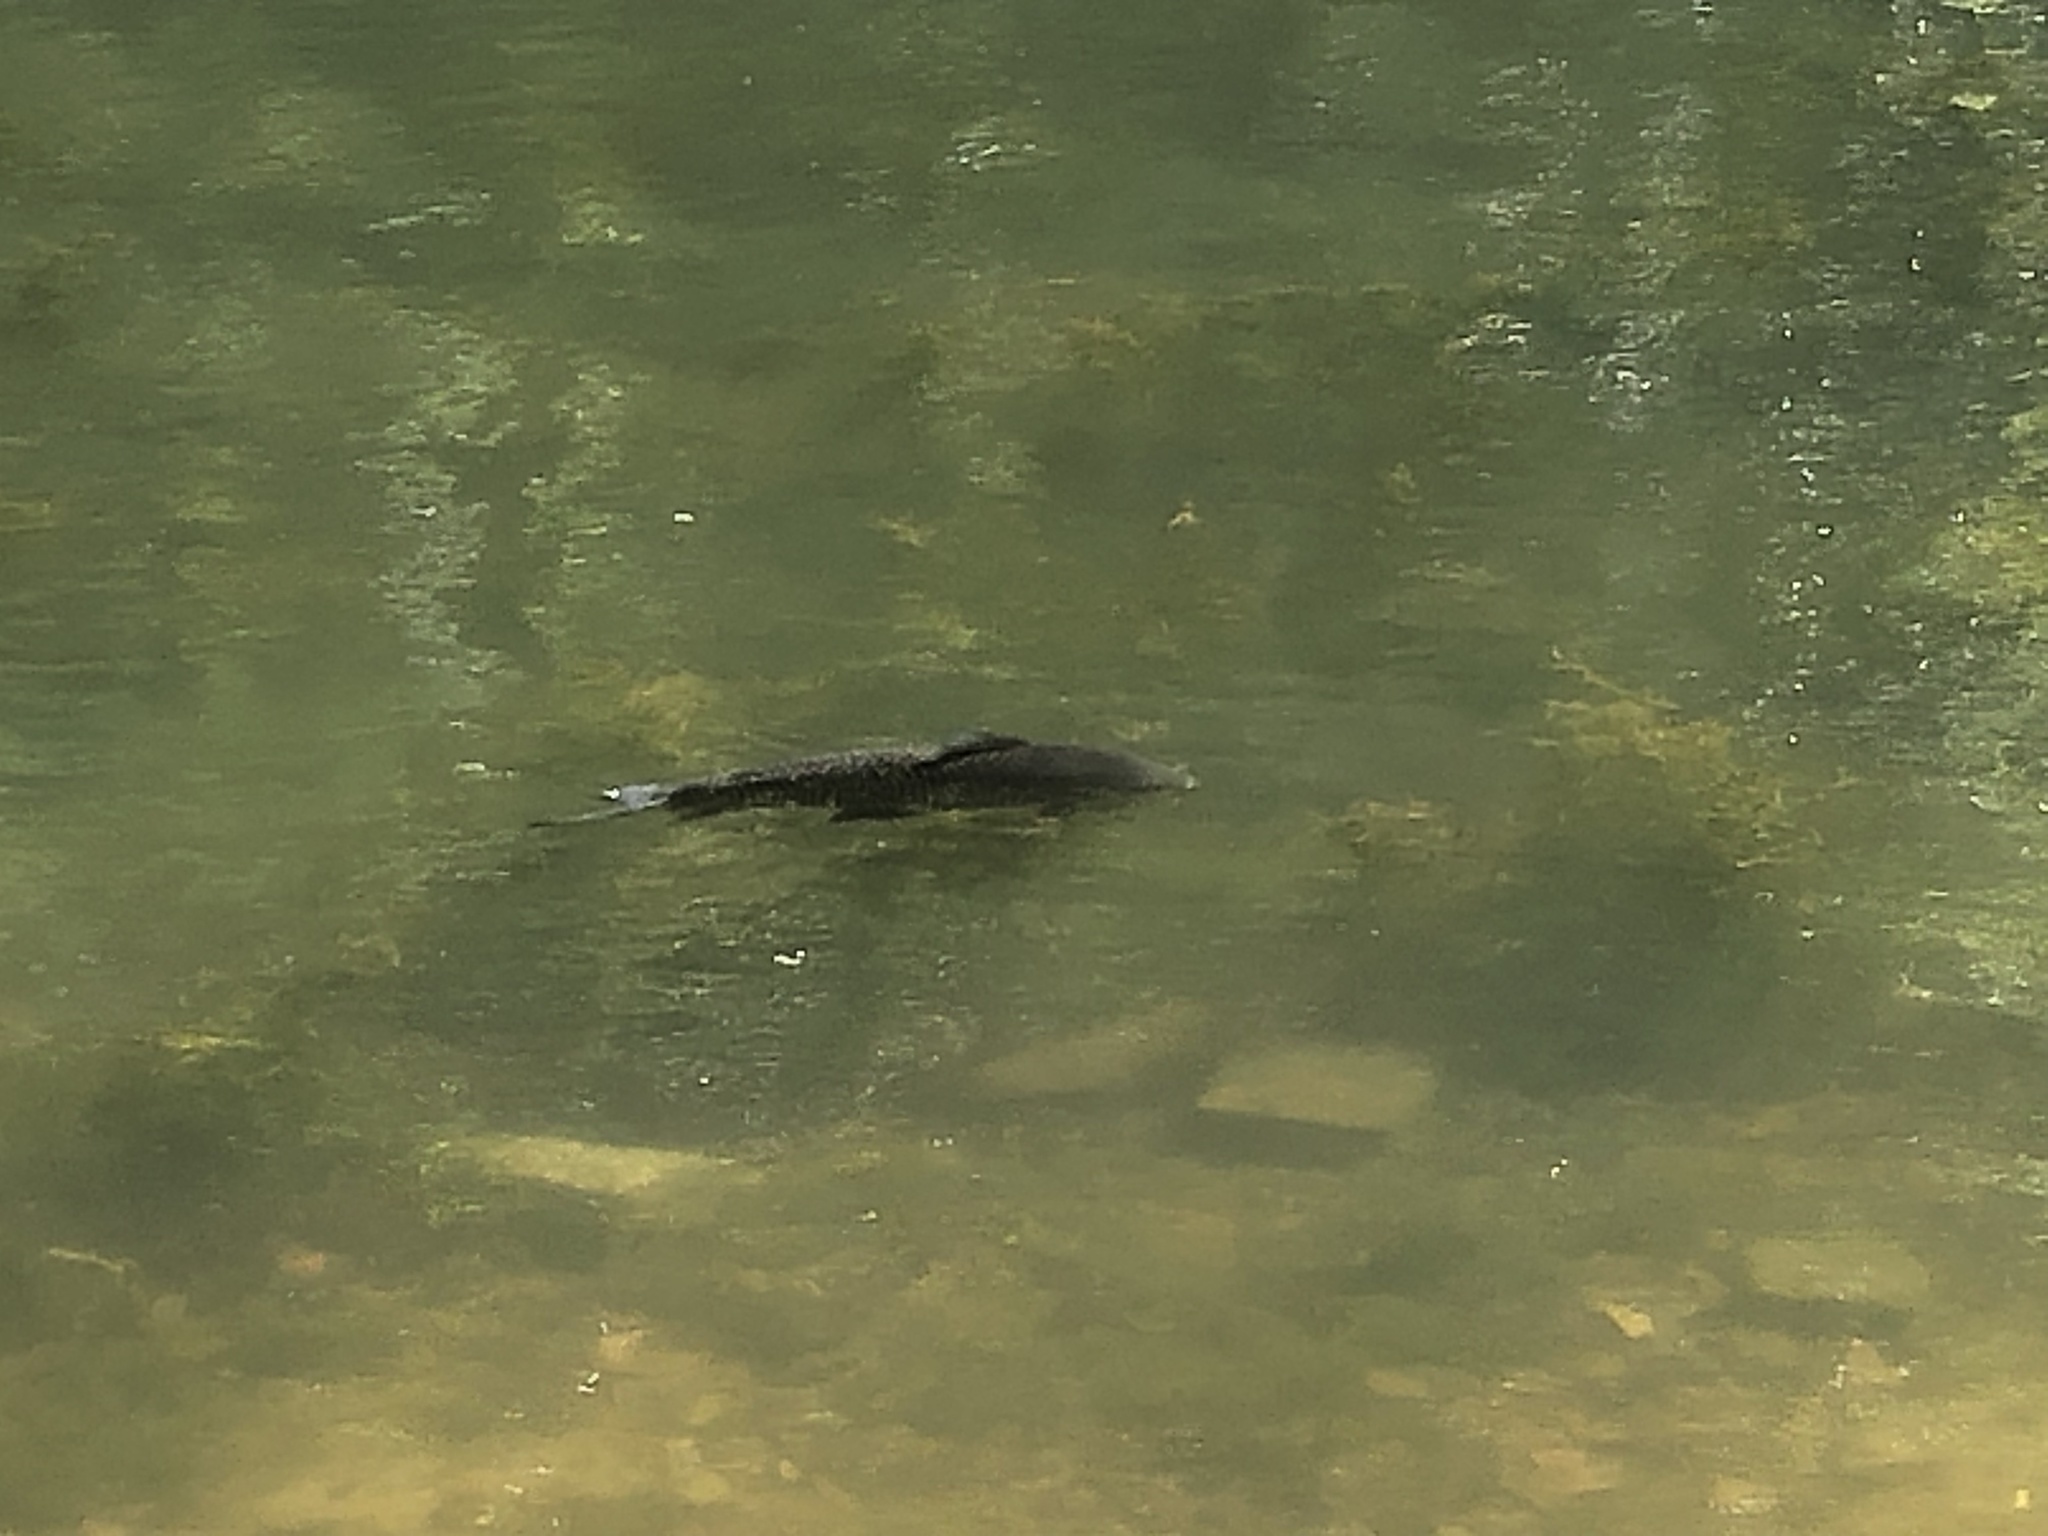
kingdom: Animalia
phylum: Chordata
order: Characiformes
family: Prochilodontidae
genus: Prochilodus
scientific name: Prochilodus lineatus
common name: Curimbata
